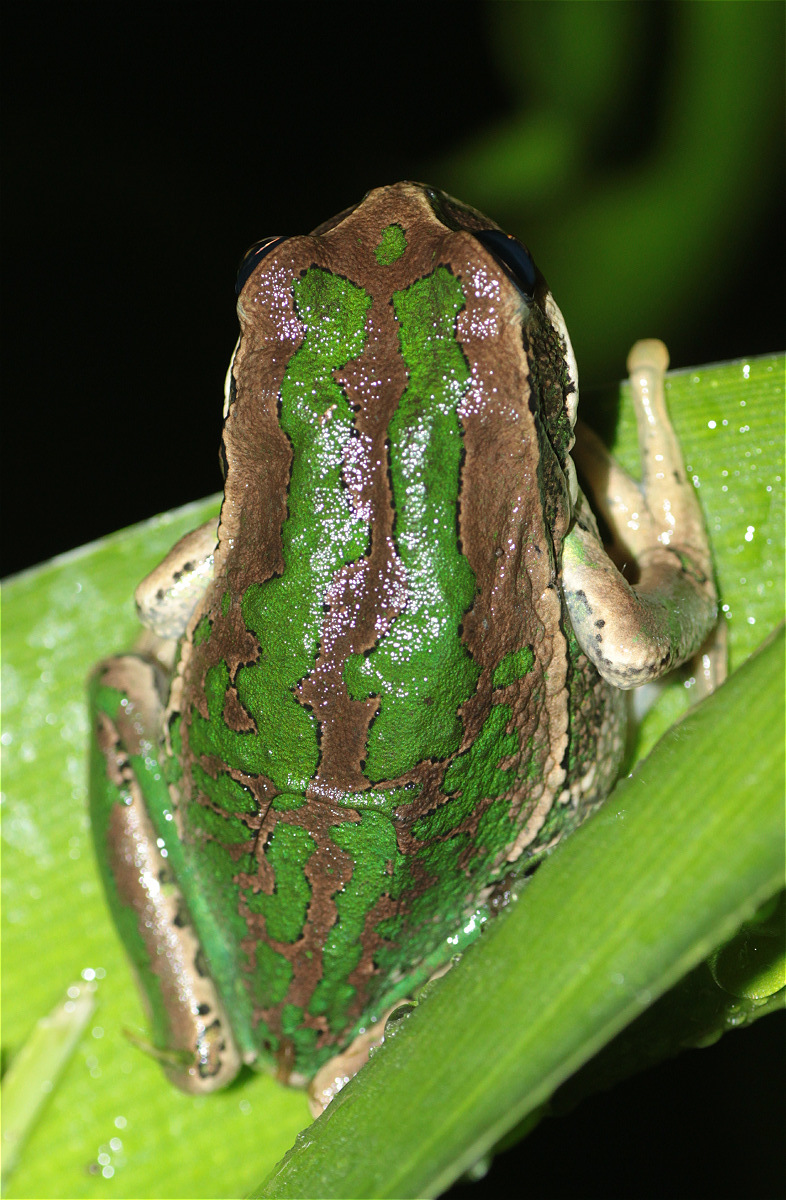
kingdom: Animalia
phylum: Chordata
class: Amphibia
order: Anura
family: Hemiphractidae
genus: Gastrotheca
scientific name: Gastrotheca cuencana
